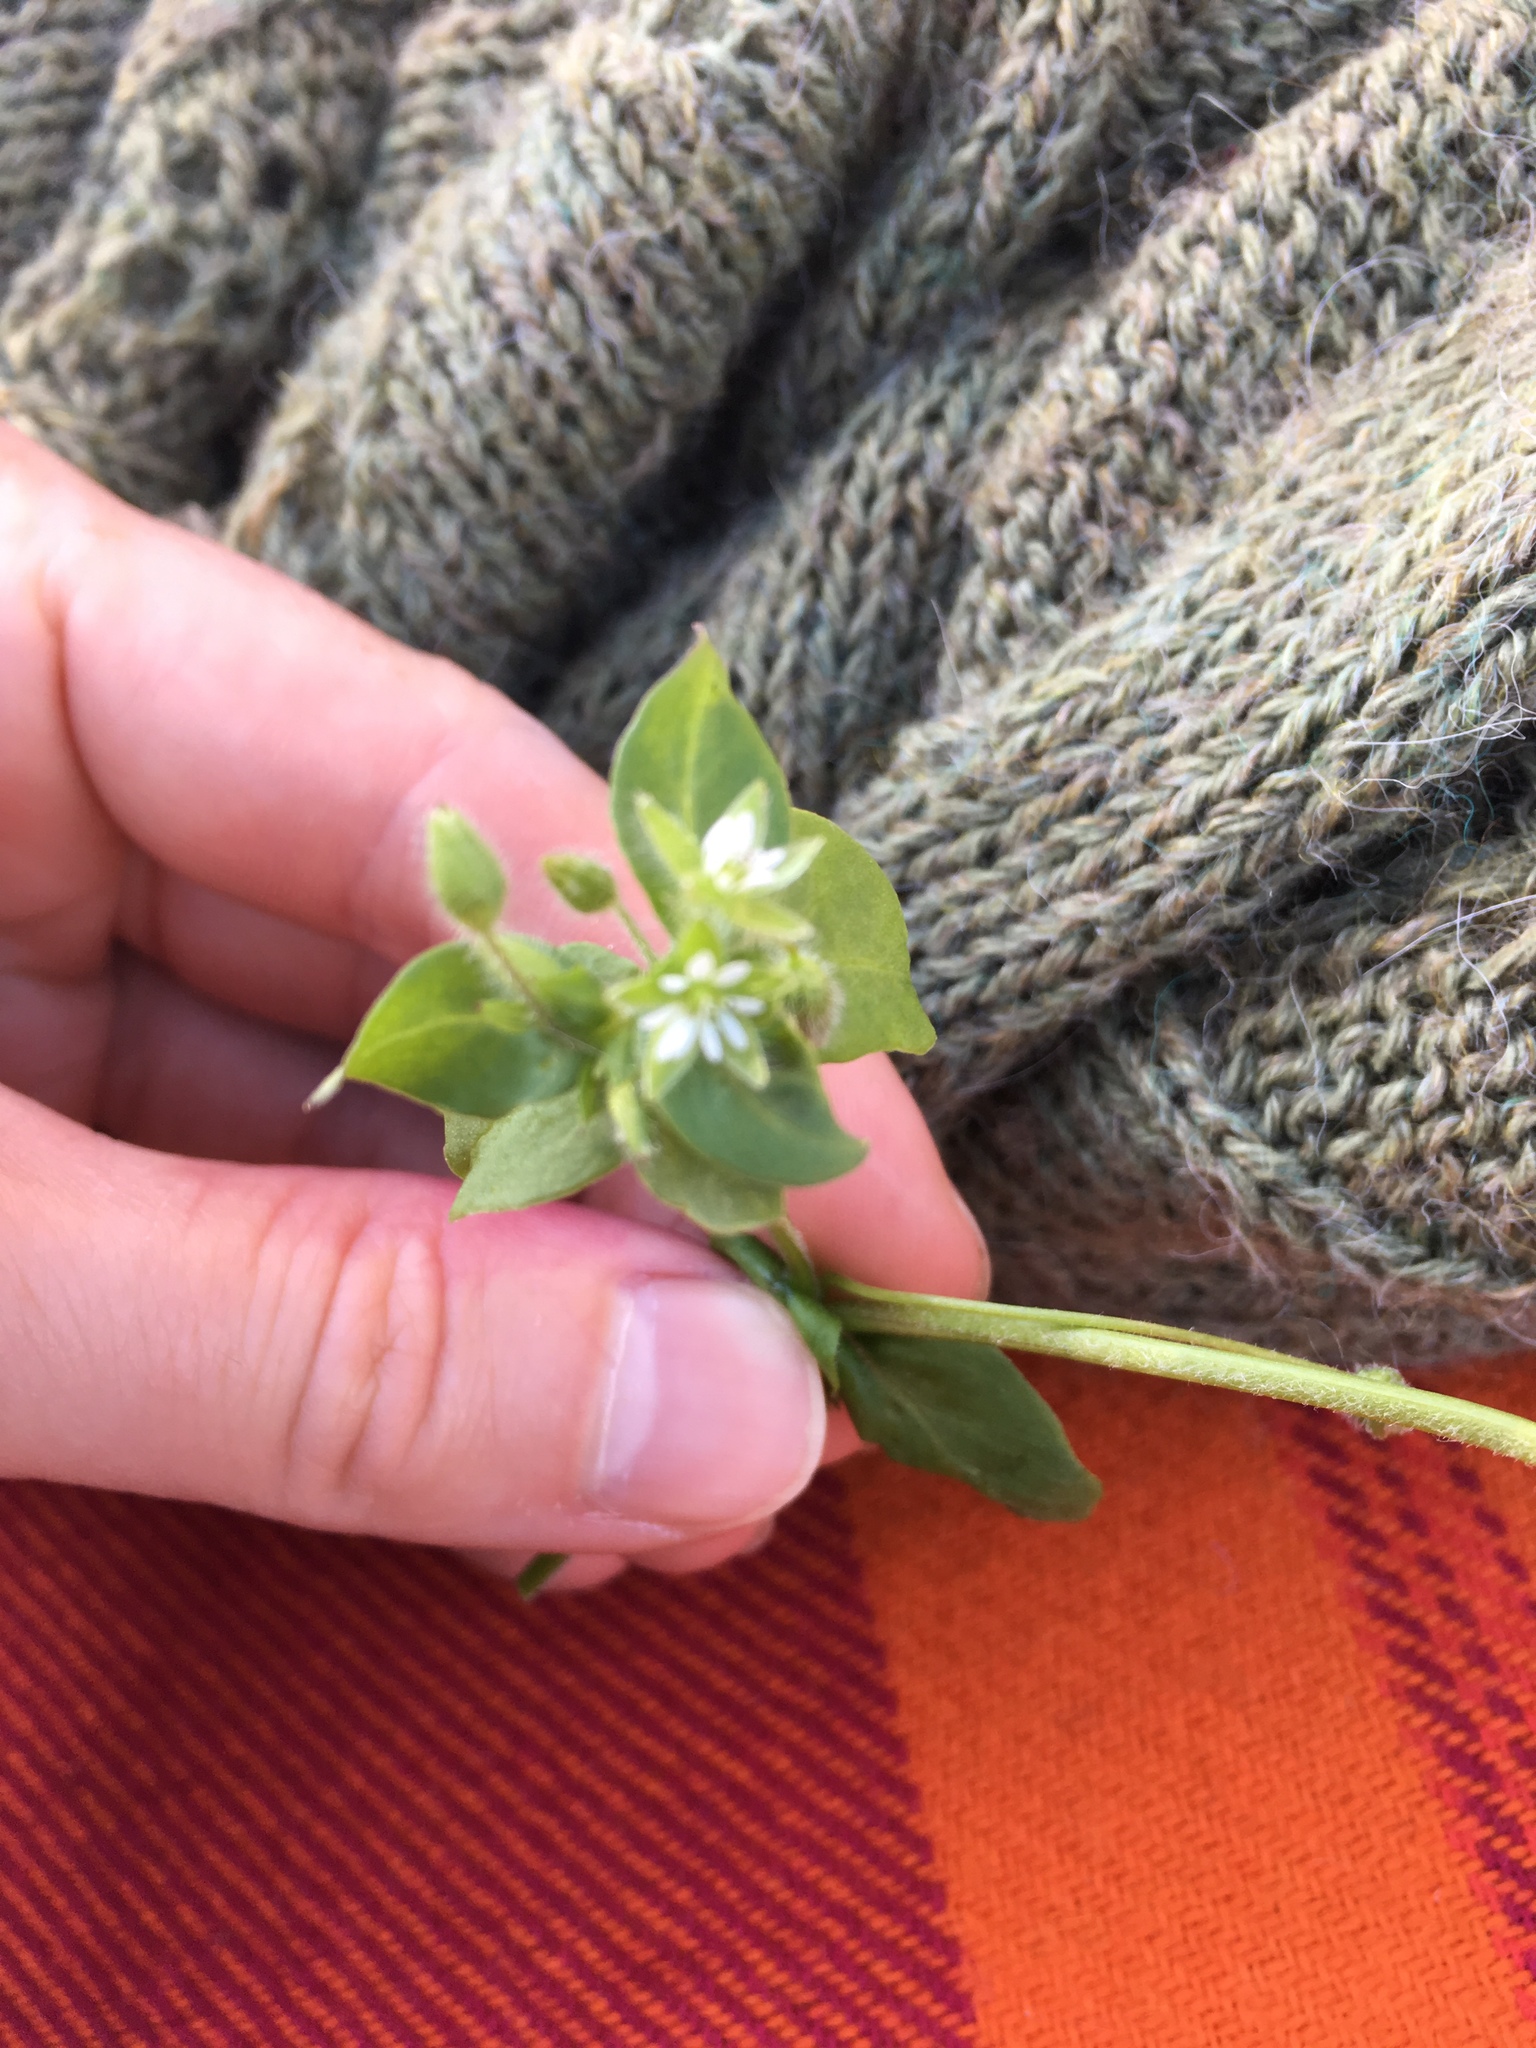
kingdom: Plantae
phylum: Tracheophyta
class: Magnoliopsida
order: Caryophyllales
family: Caryophyllaceae
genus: Stellaria
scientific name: Stellaria media
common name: Common chickweed
